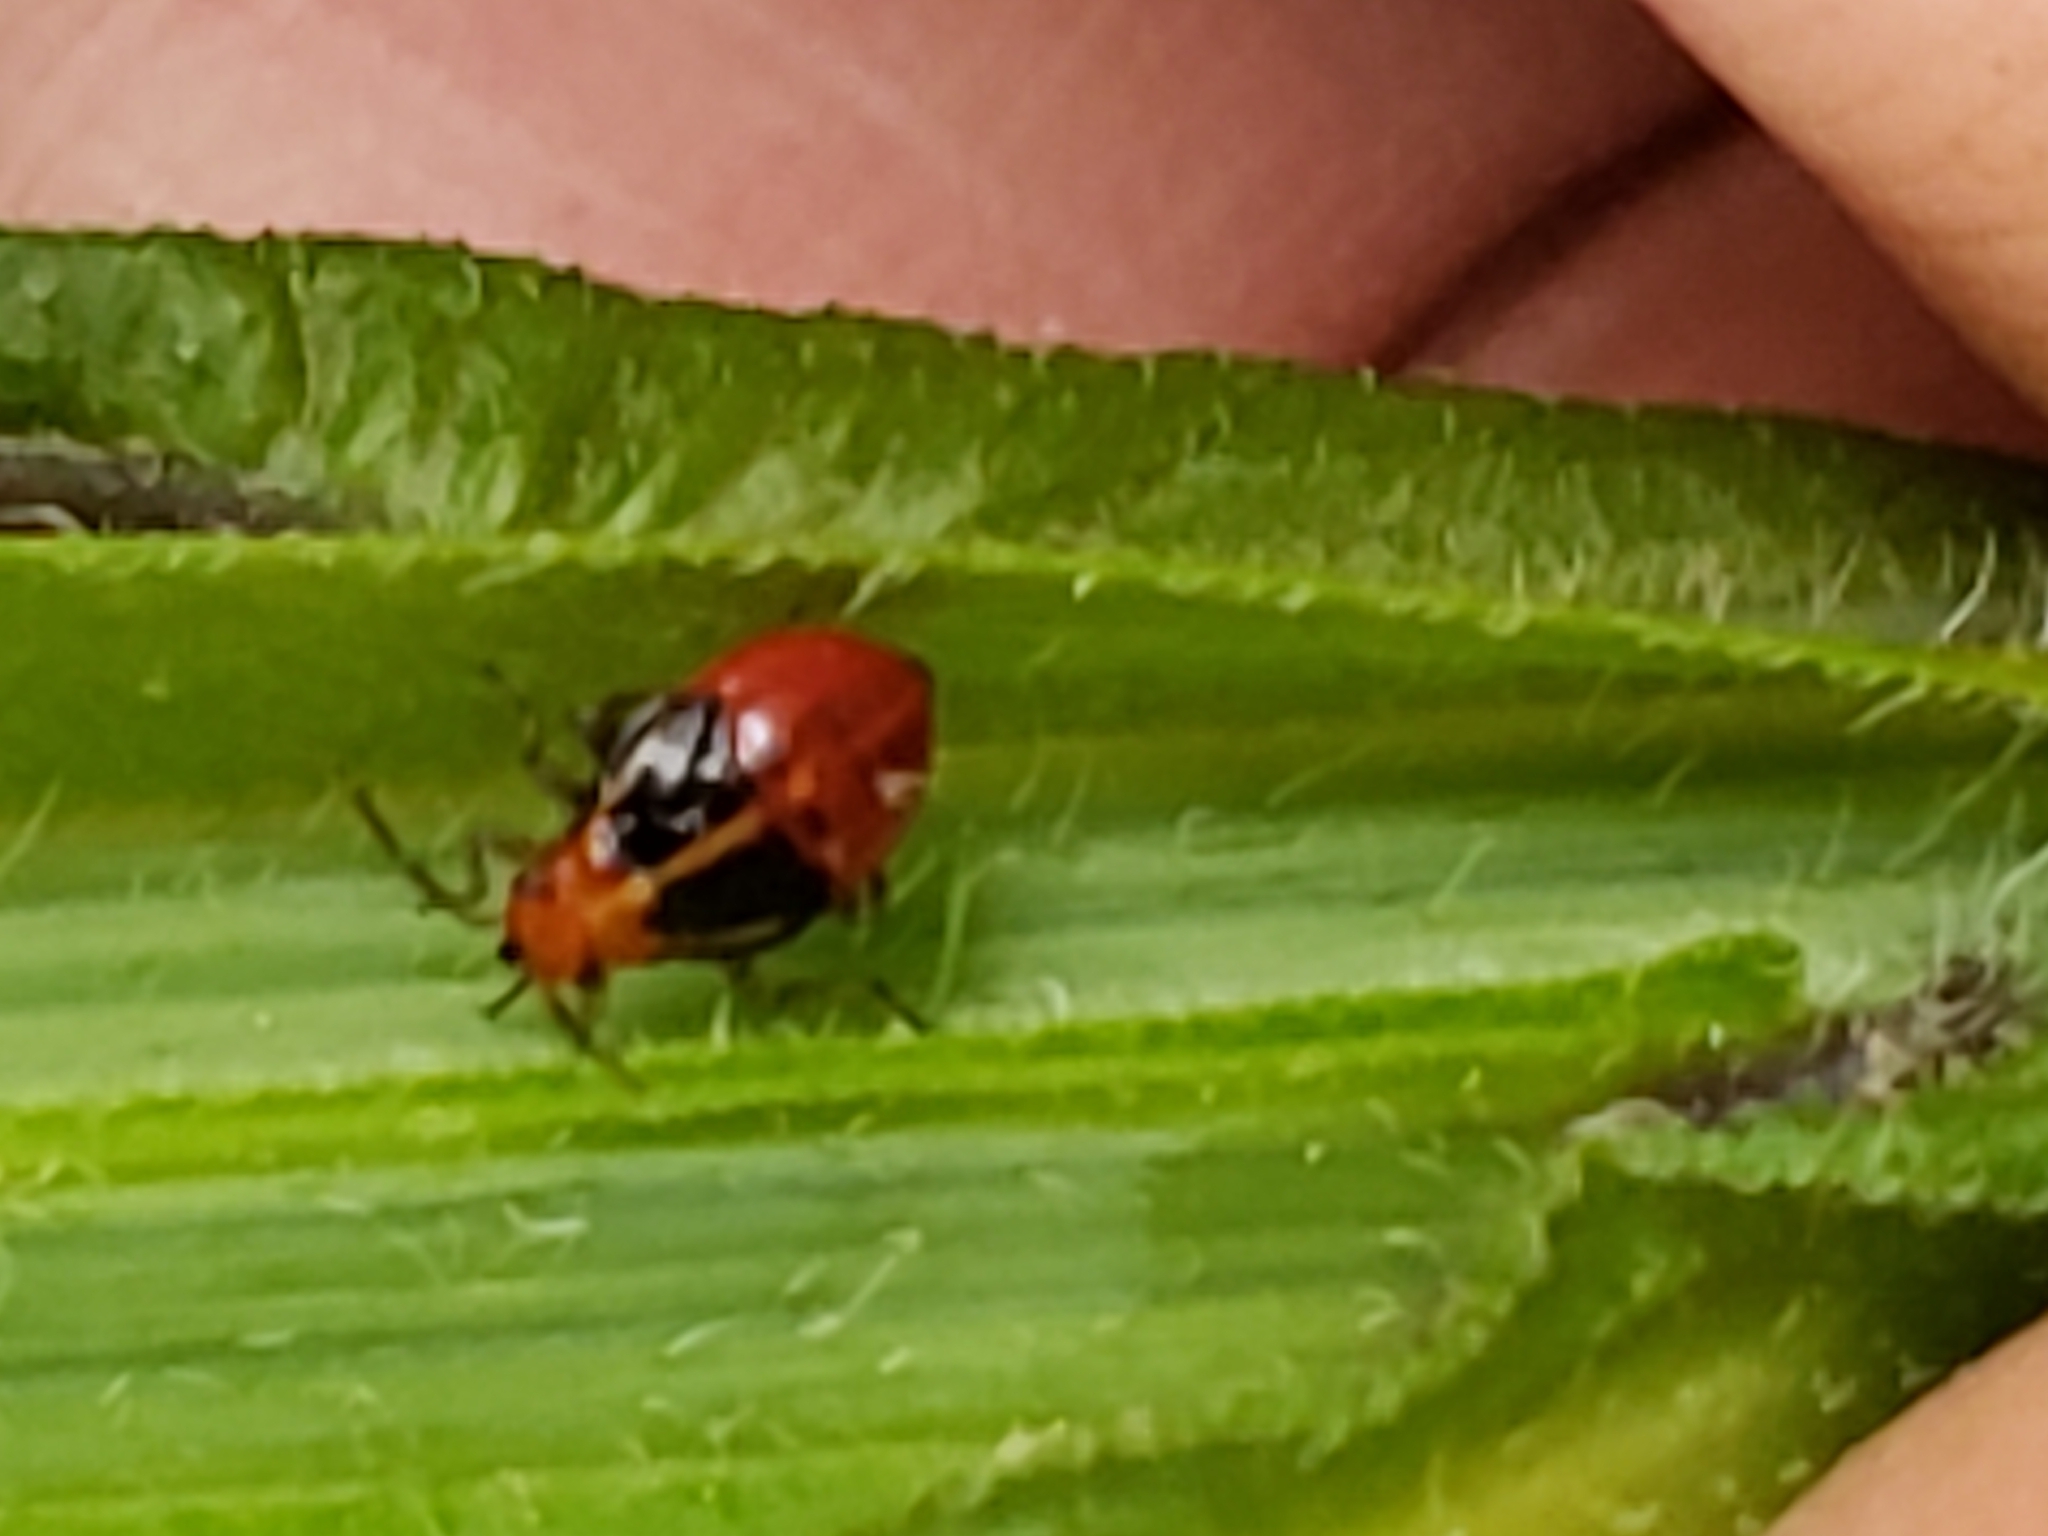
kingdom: Animalia
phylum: Arthropoda
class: Insecta
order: Hemiptera
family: Miridae
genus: Poecilocapsus
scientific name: Poecilocapsus lineatus
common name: Four-lined plant bug
